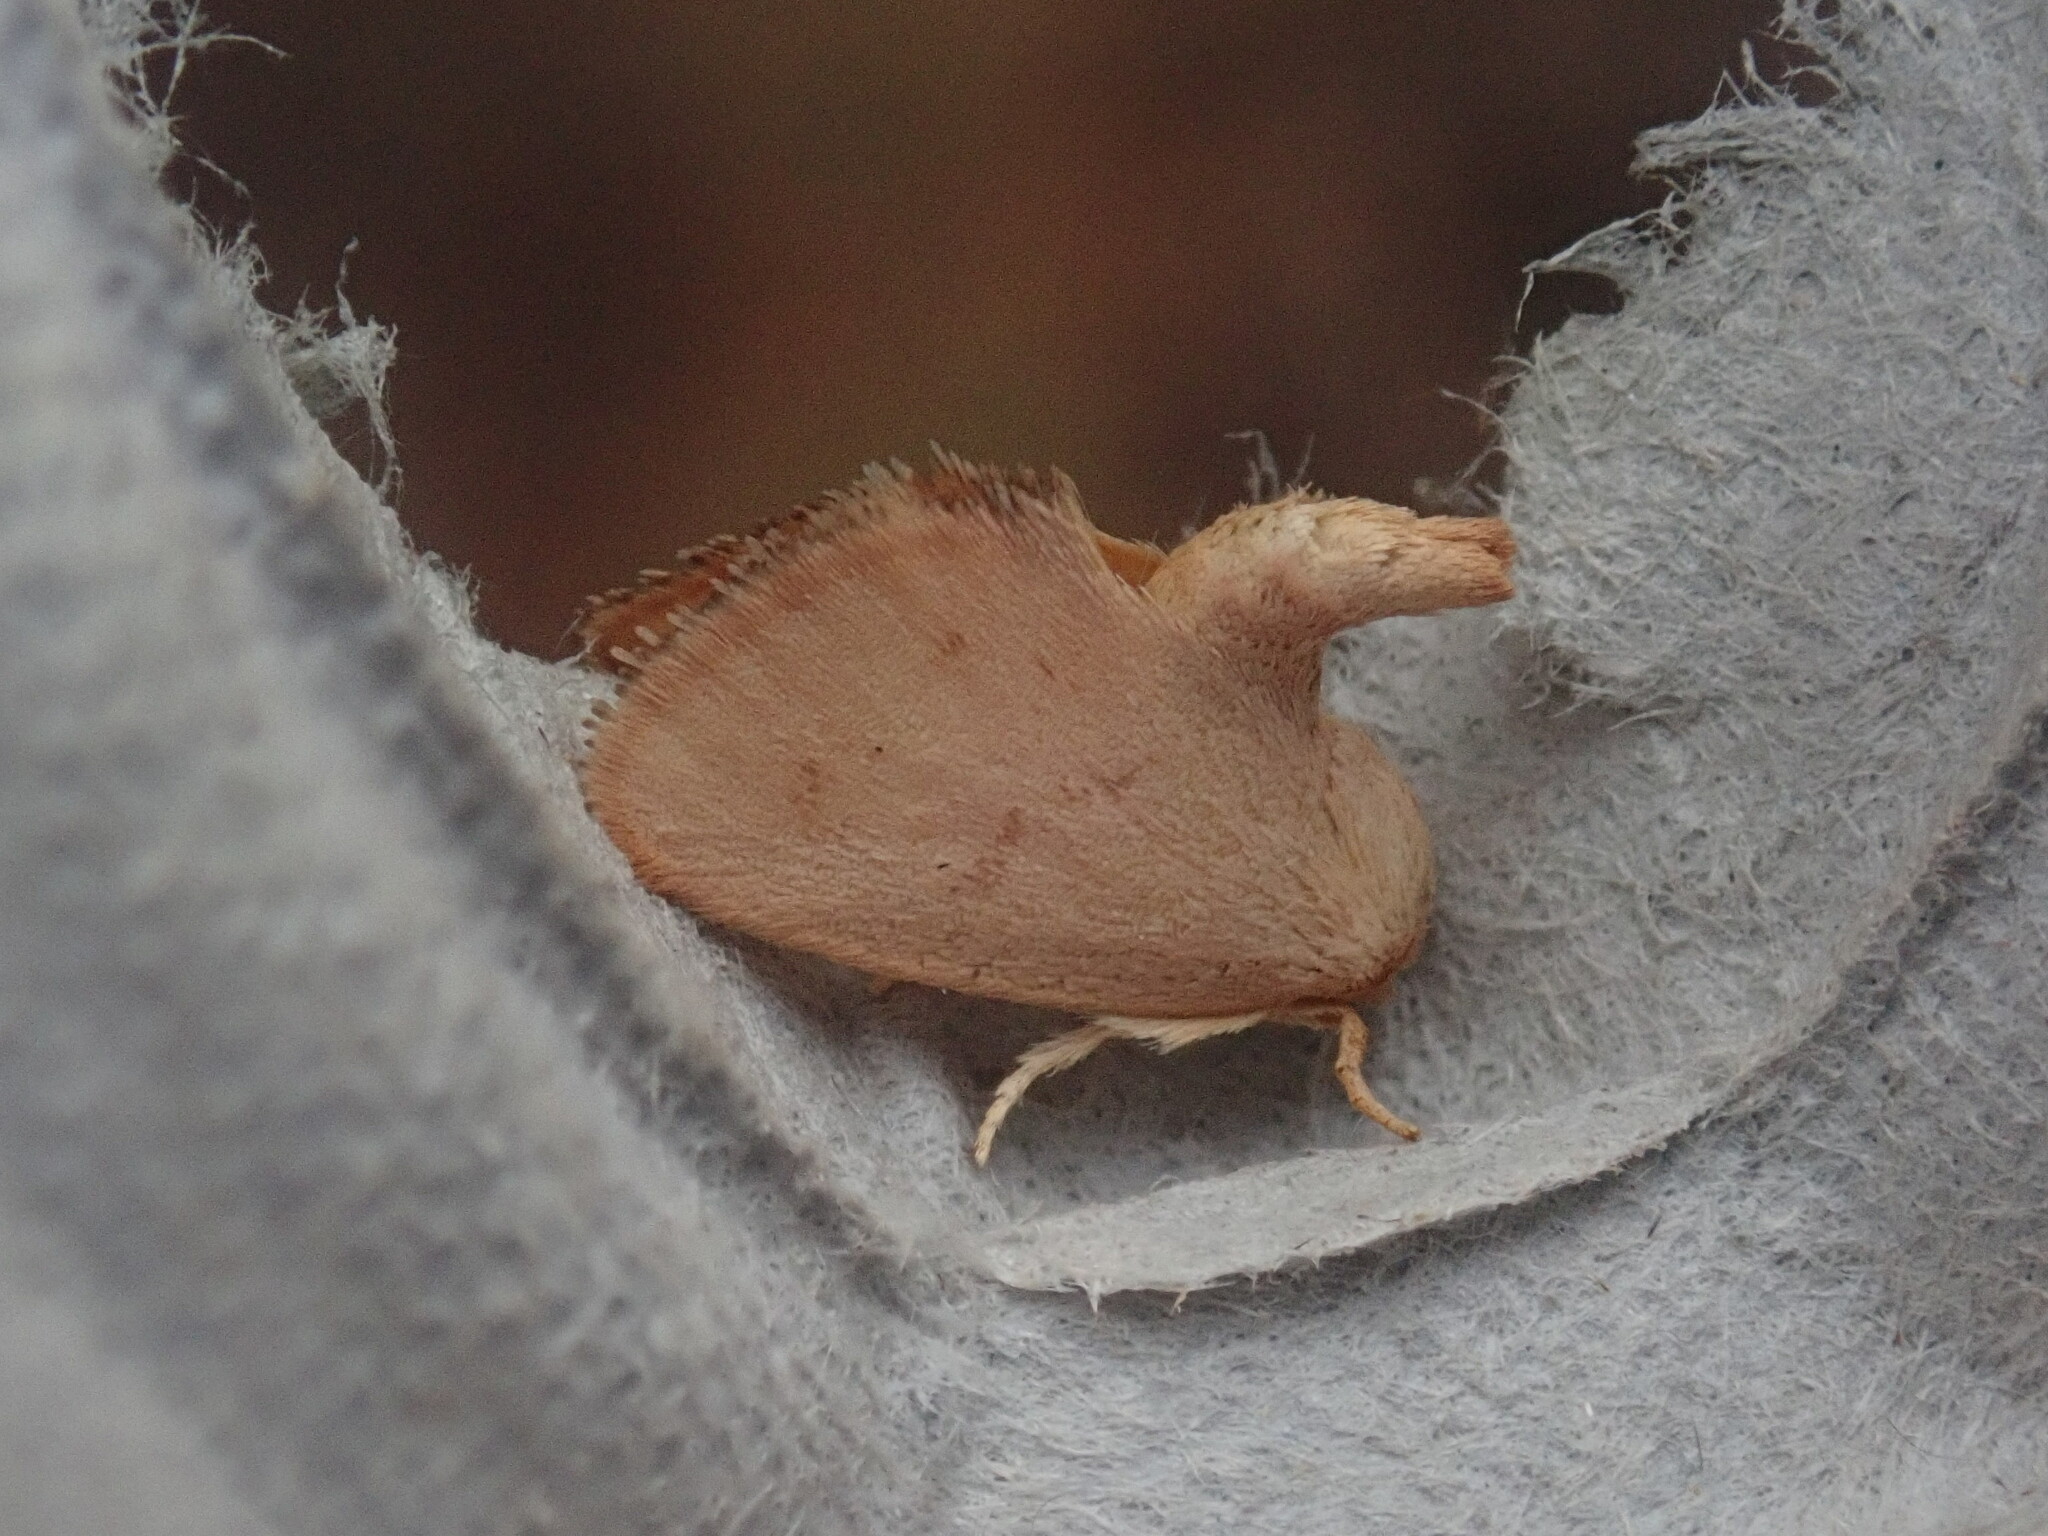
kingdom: Animalia
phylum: Arthropoda
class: Insecta
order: Lepidoptera
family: Limacodidae
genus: Tortricidia
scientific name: Tortricidia pallida
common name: Red-crossed button slug moth
